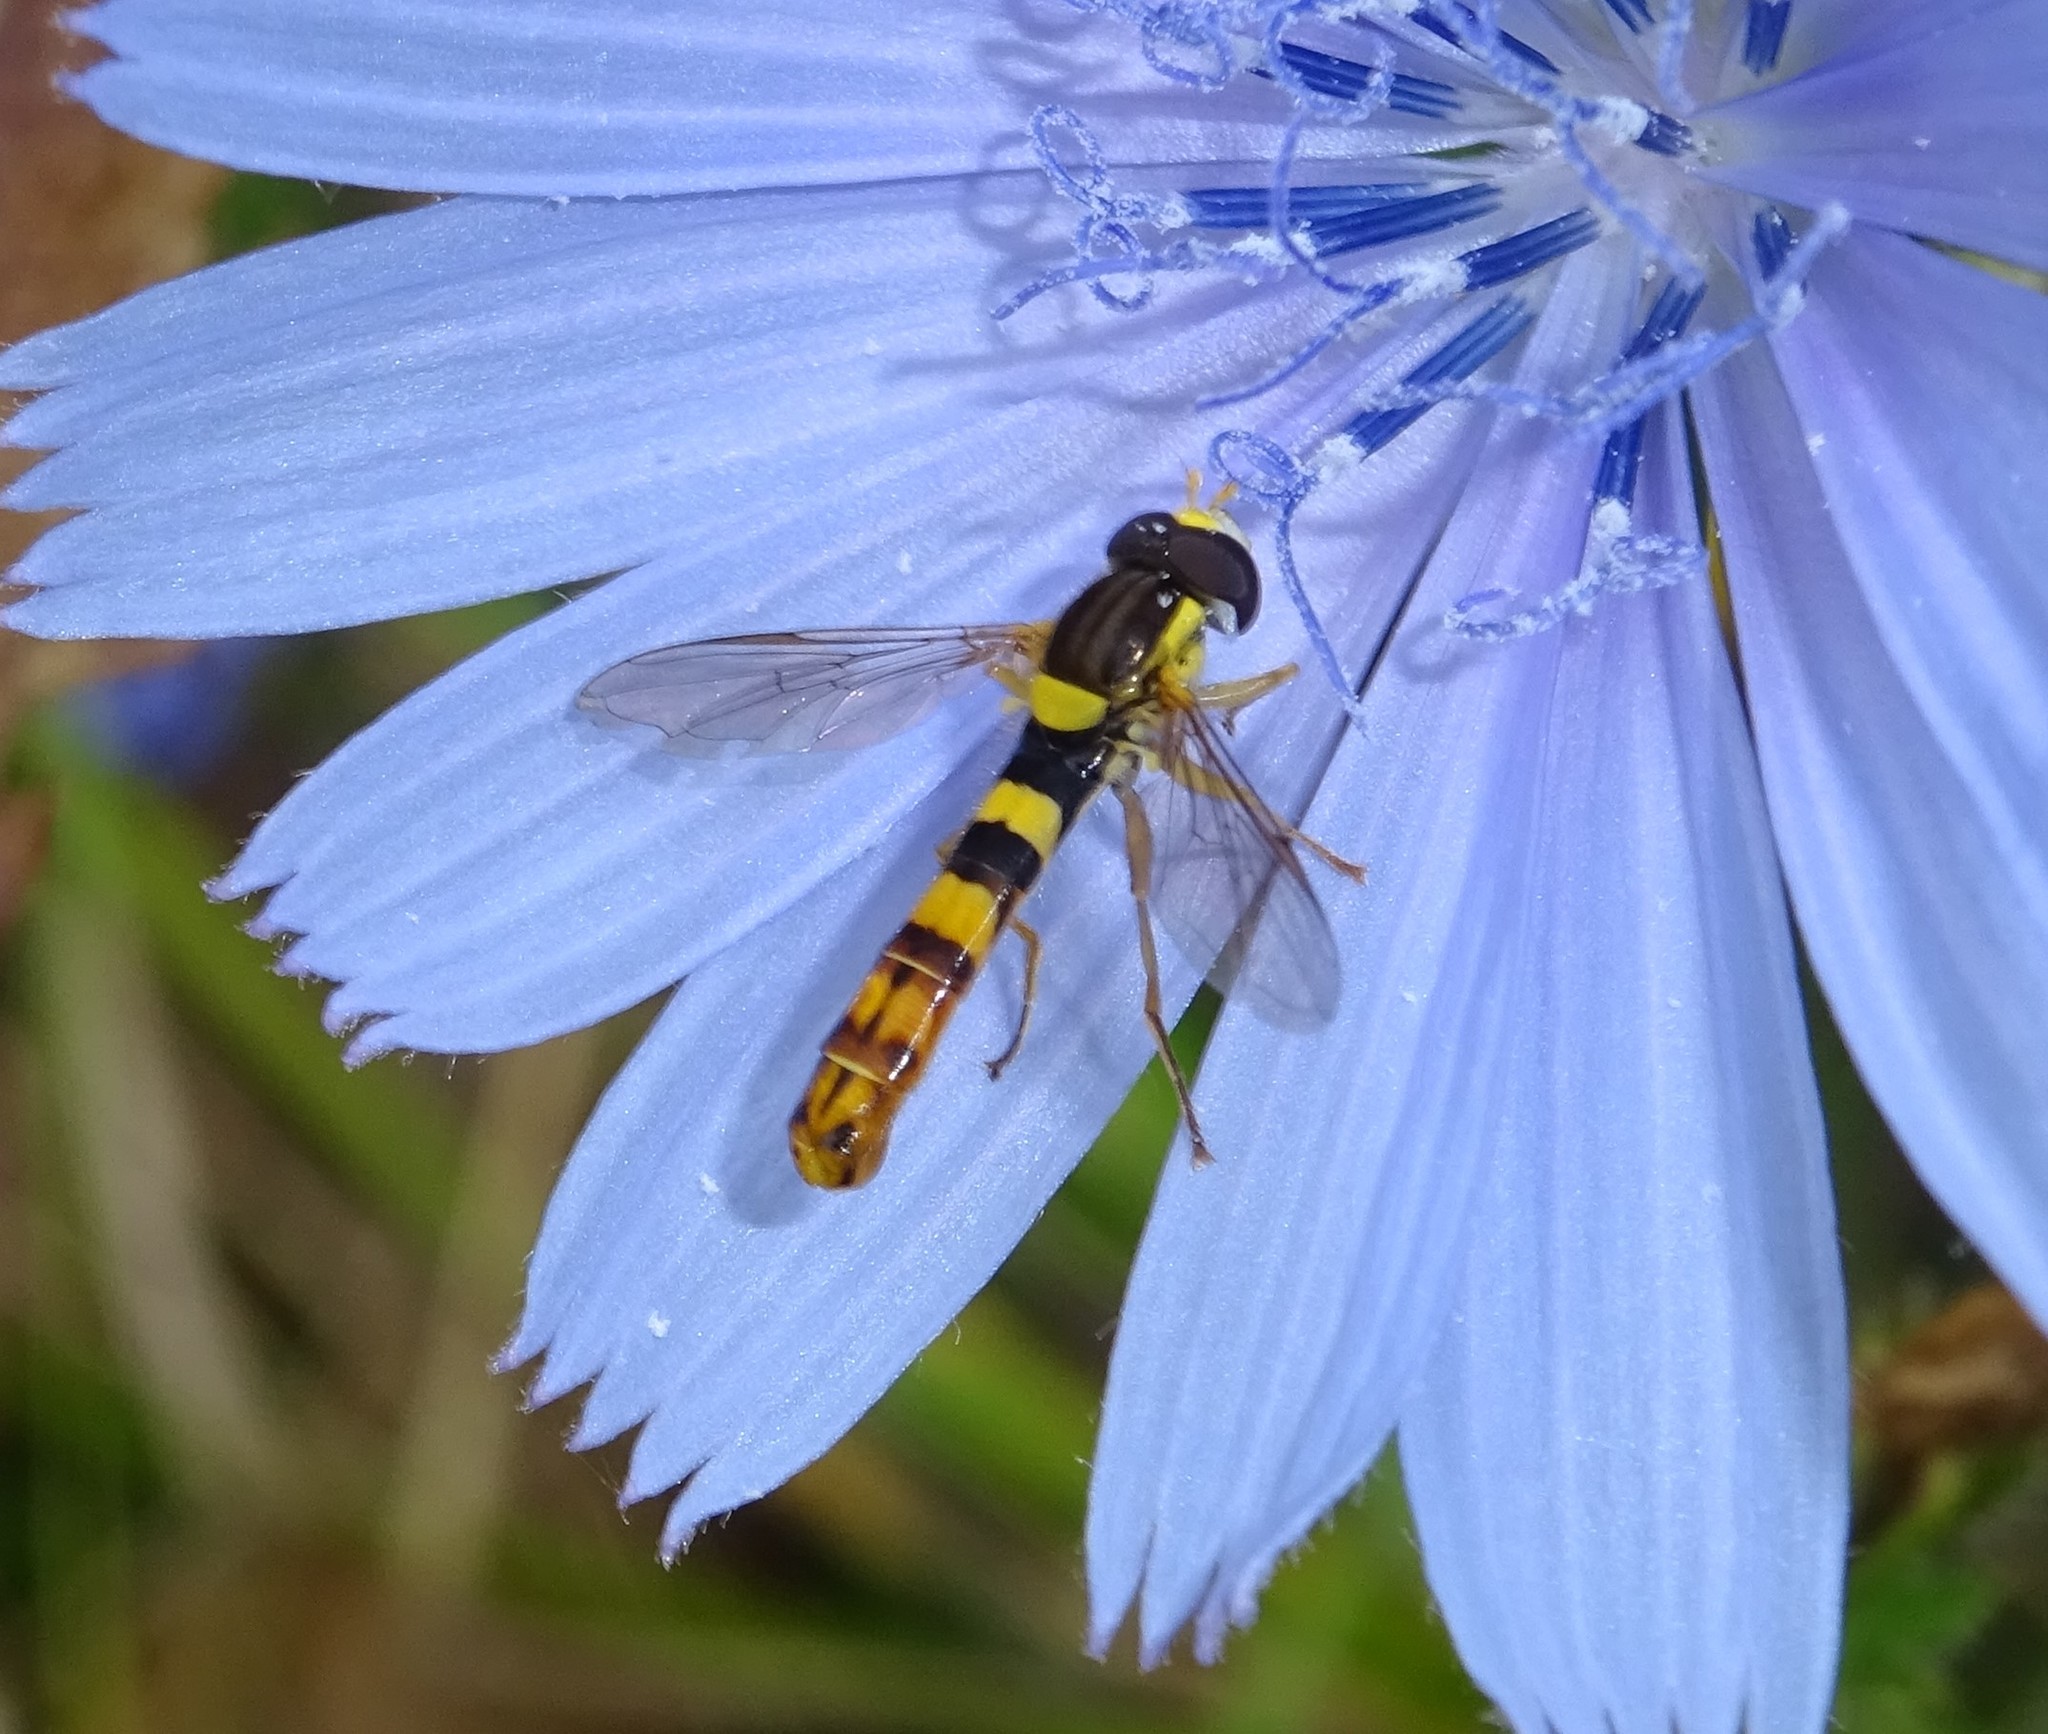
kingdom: Animalia
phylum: Arthropoda
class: Insecta
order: Diptera
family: Syrphidae
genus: Sphaerophoria
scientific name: Sphaerophoria scripta
